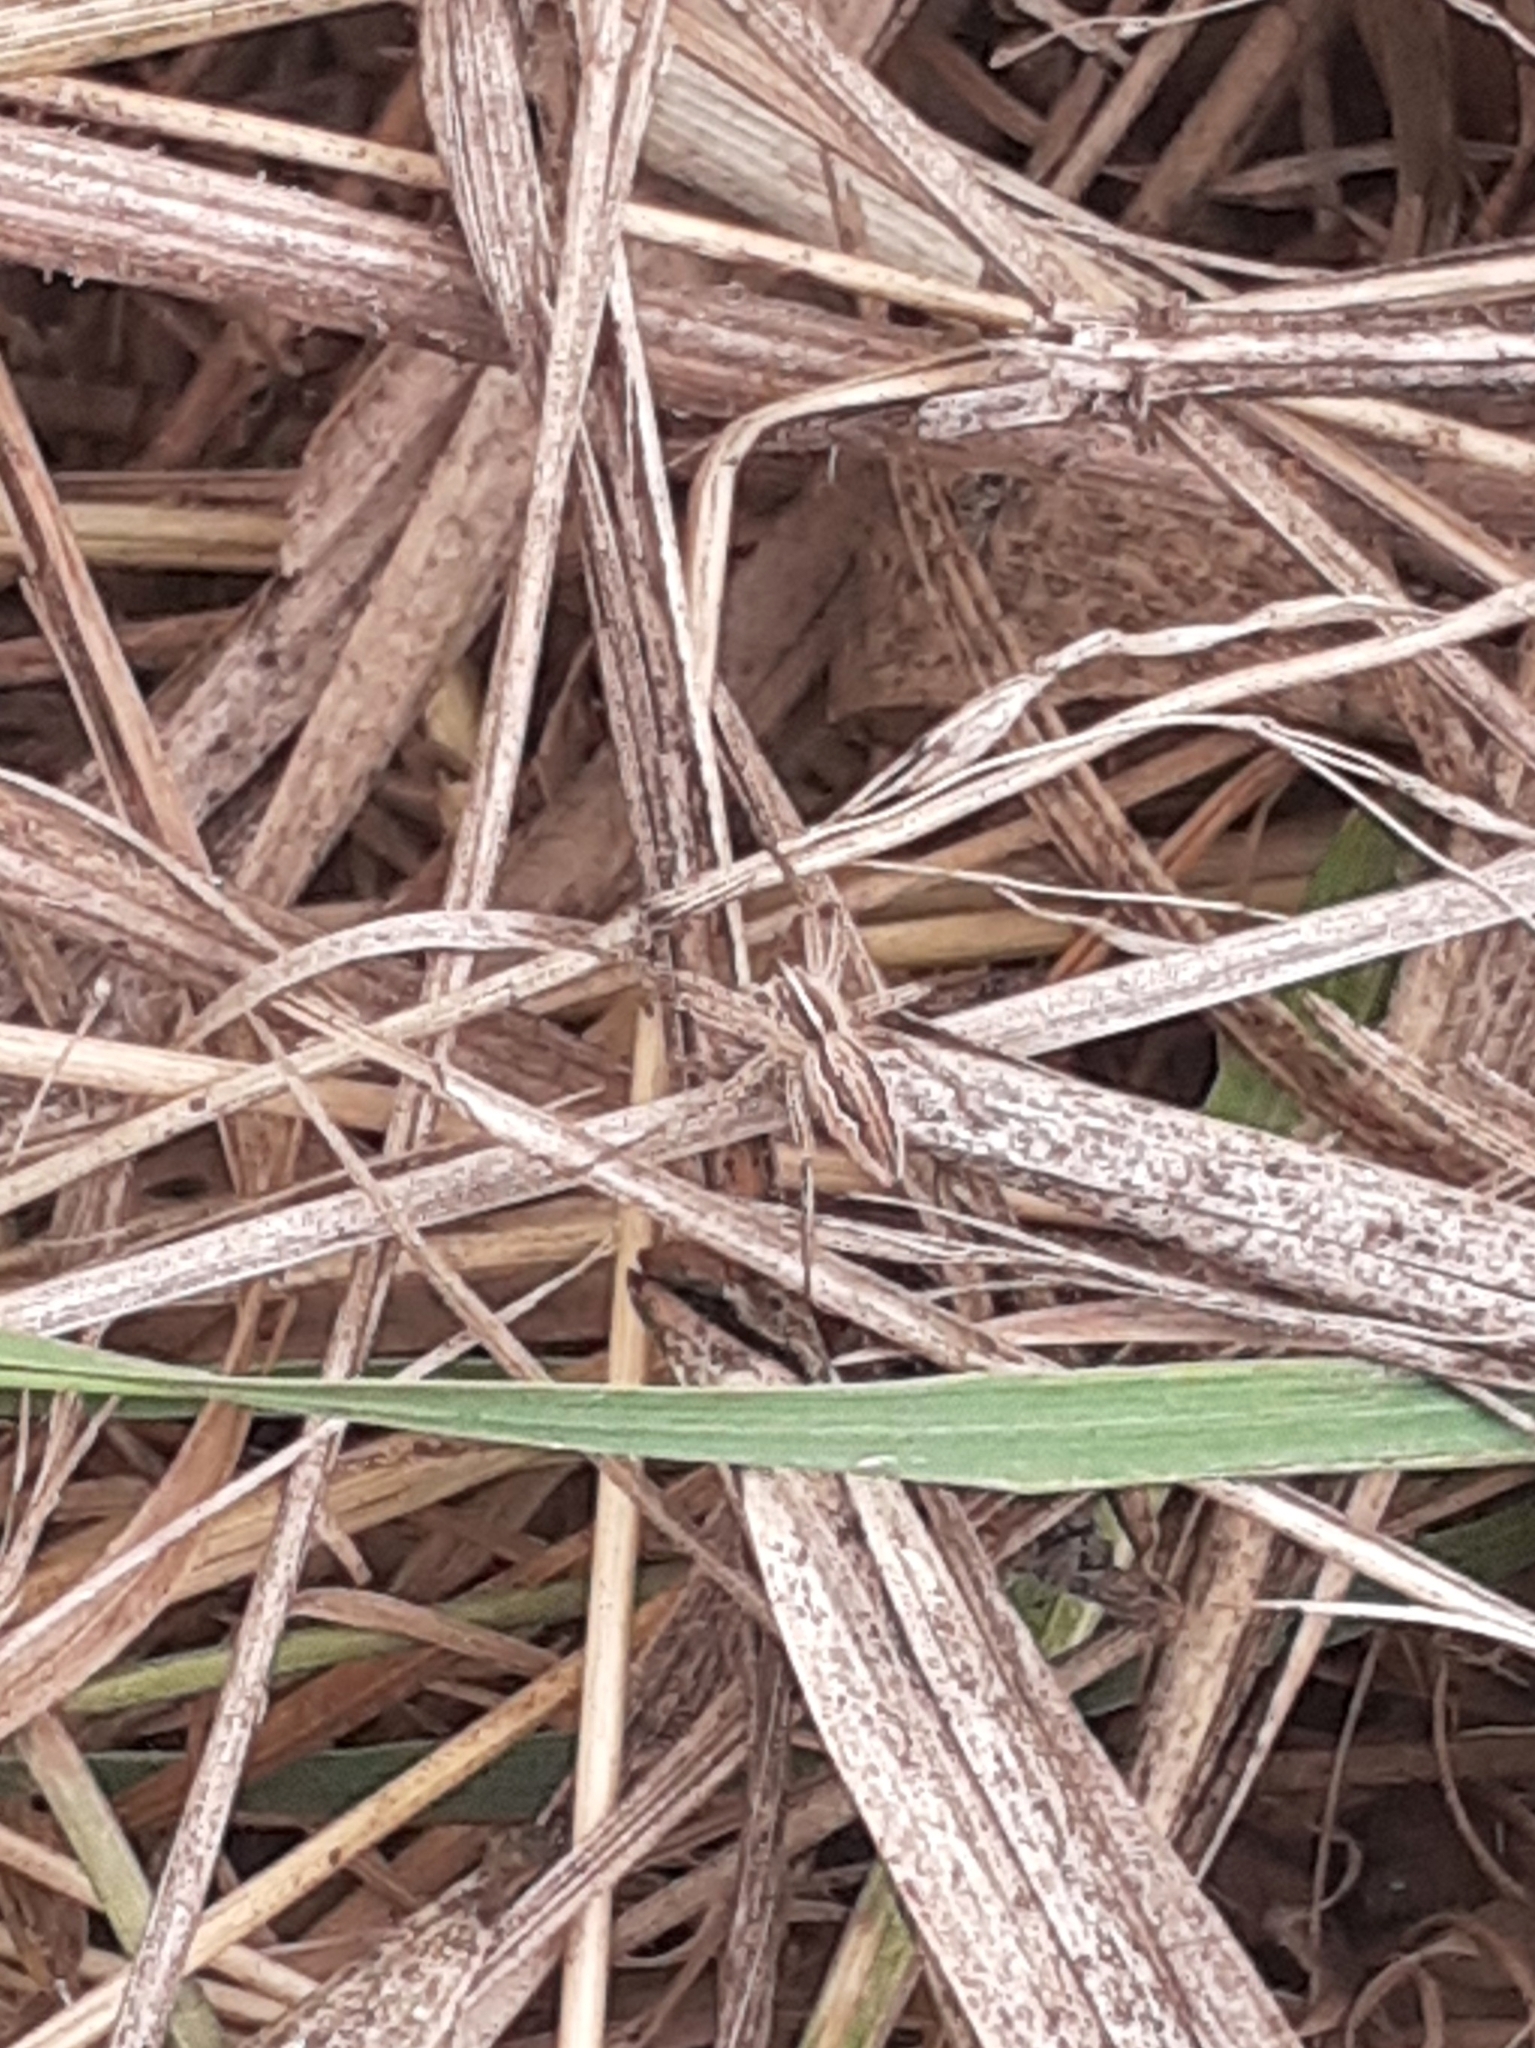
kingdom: Animalia
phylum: Arthropoda
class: Arachnida
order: Araneae
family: Pisauridae
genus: Pisaura
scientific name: Pisaura mirabilis
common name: Tent spider
